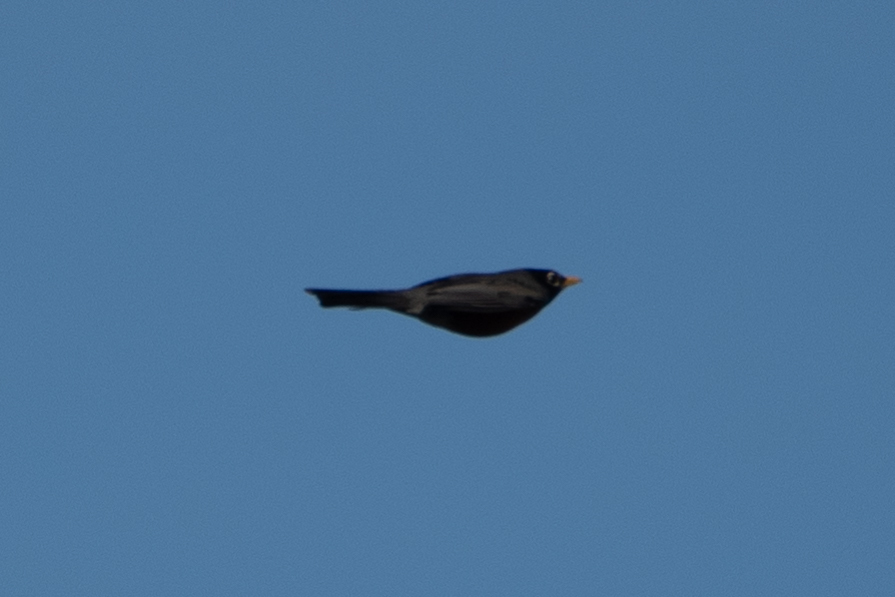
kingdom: Animalia
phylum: Chordata
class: Aves
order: Passeriformes
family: Turdidae
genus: Turdus
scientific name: Turdus migratorius
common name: American robin
